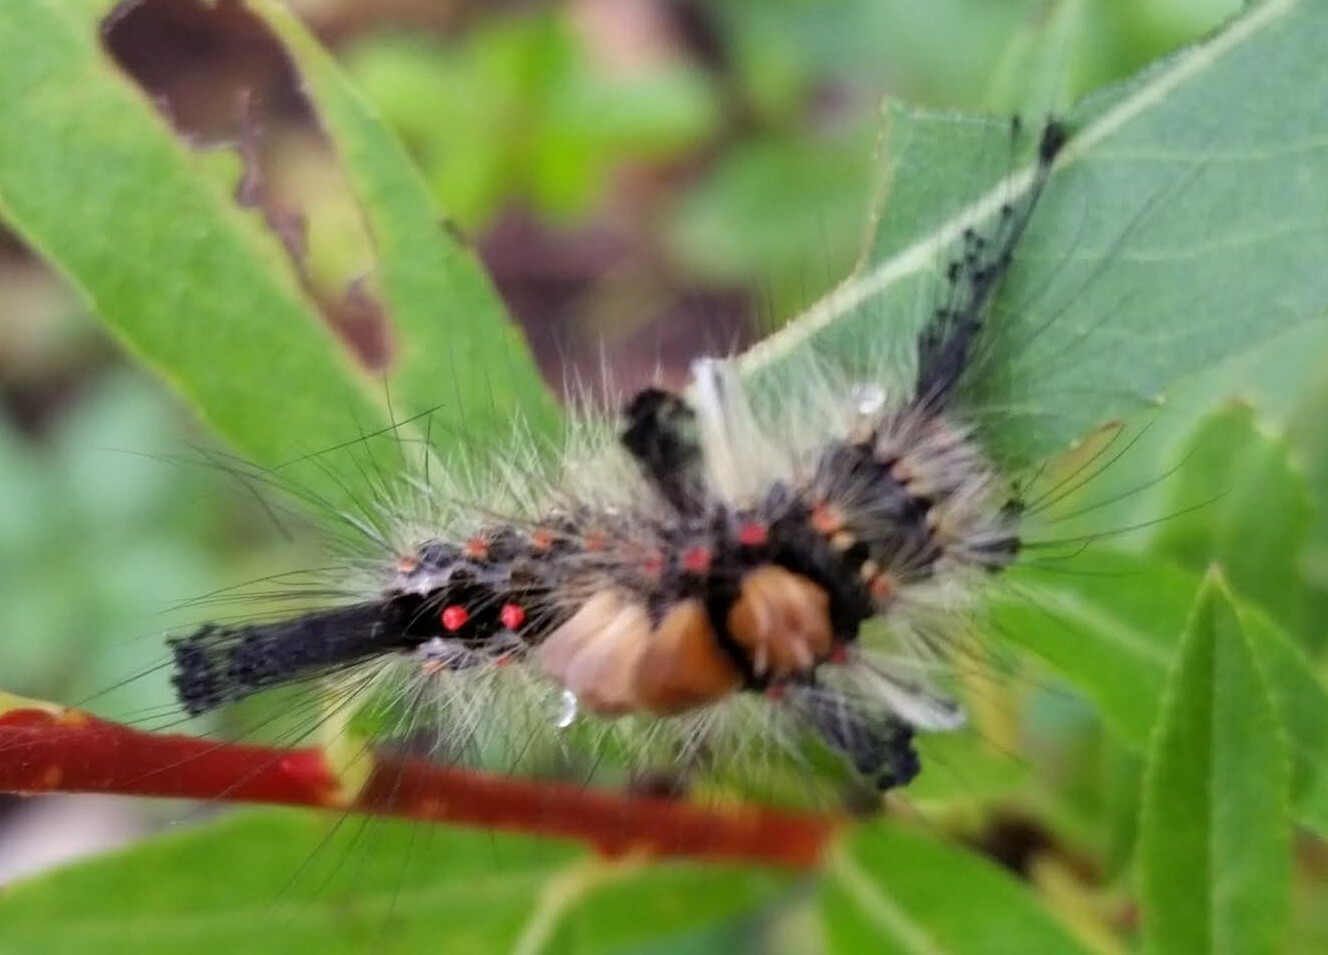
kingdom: Animalia
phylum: Arthropoda
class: Insecta
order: Lepidoptera
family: Erebidae
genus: Orgyia
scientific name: Orgyia antiqua
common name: Vapourer
